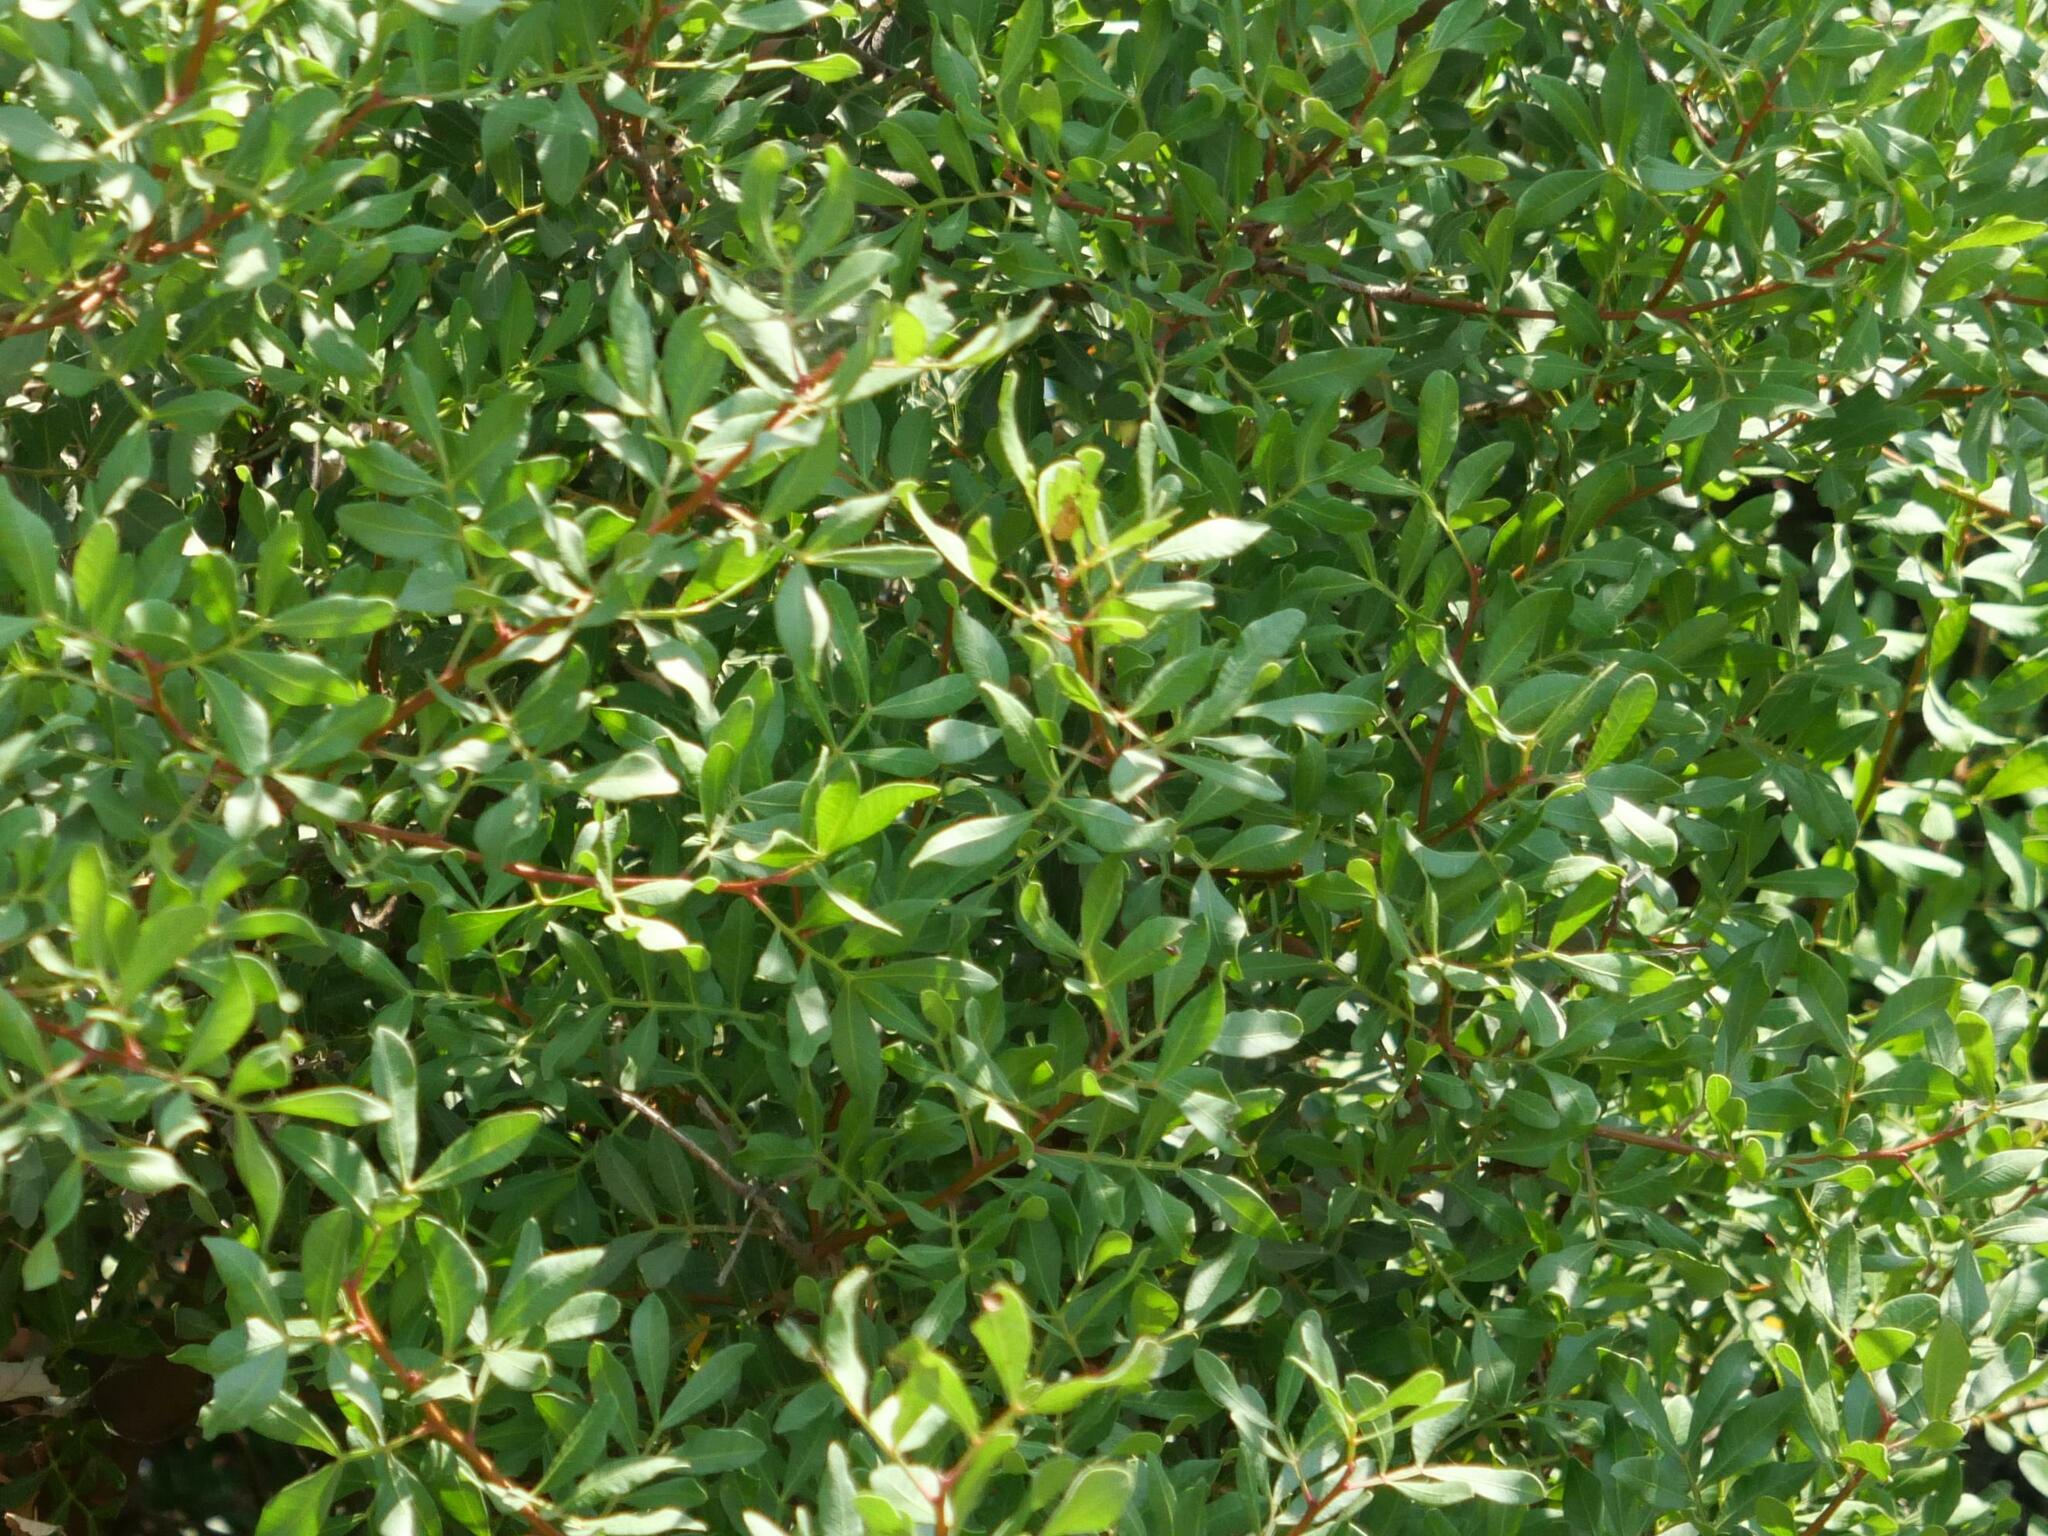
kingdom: Plantae
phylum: Tracheophyta
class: Magnoliopsida
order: Sapindales
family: Anacardiaceae
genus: Pistacia
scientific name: Pistacia lentiscus
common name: Lentisk
